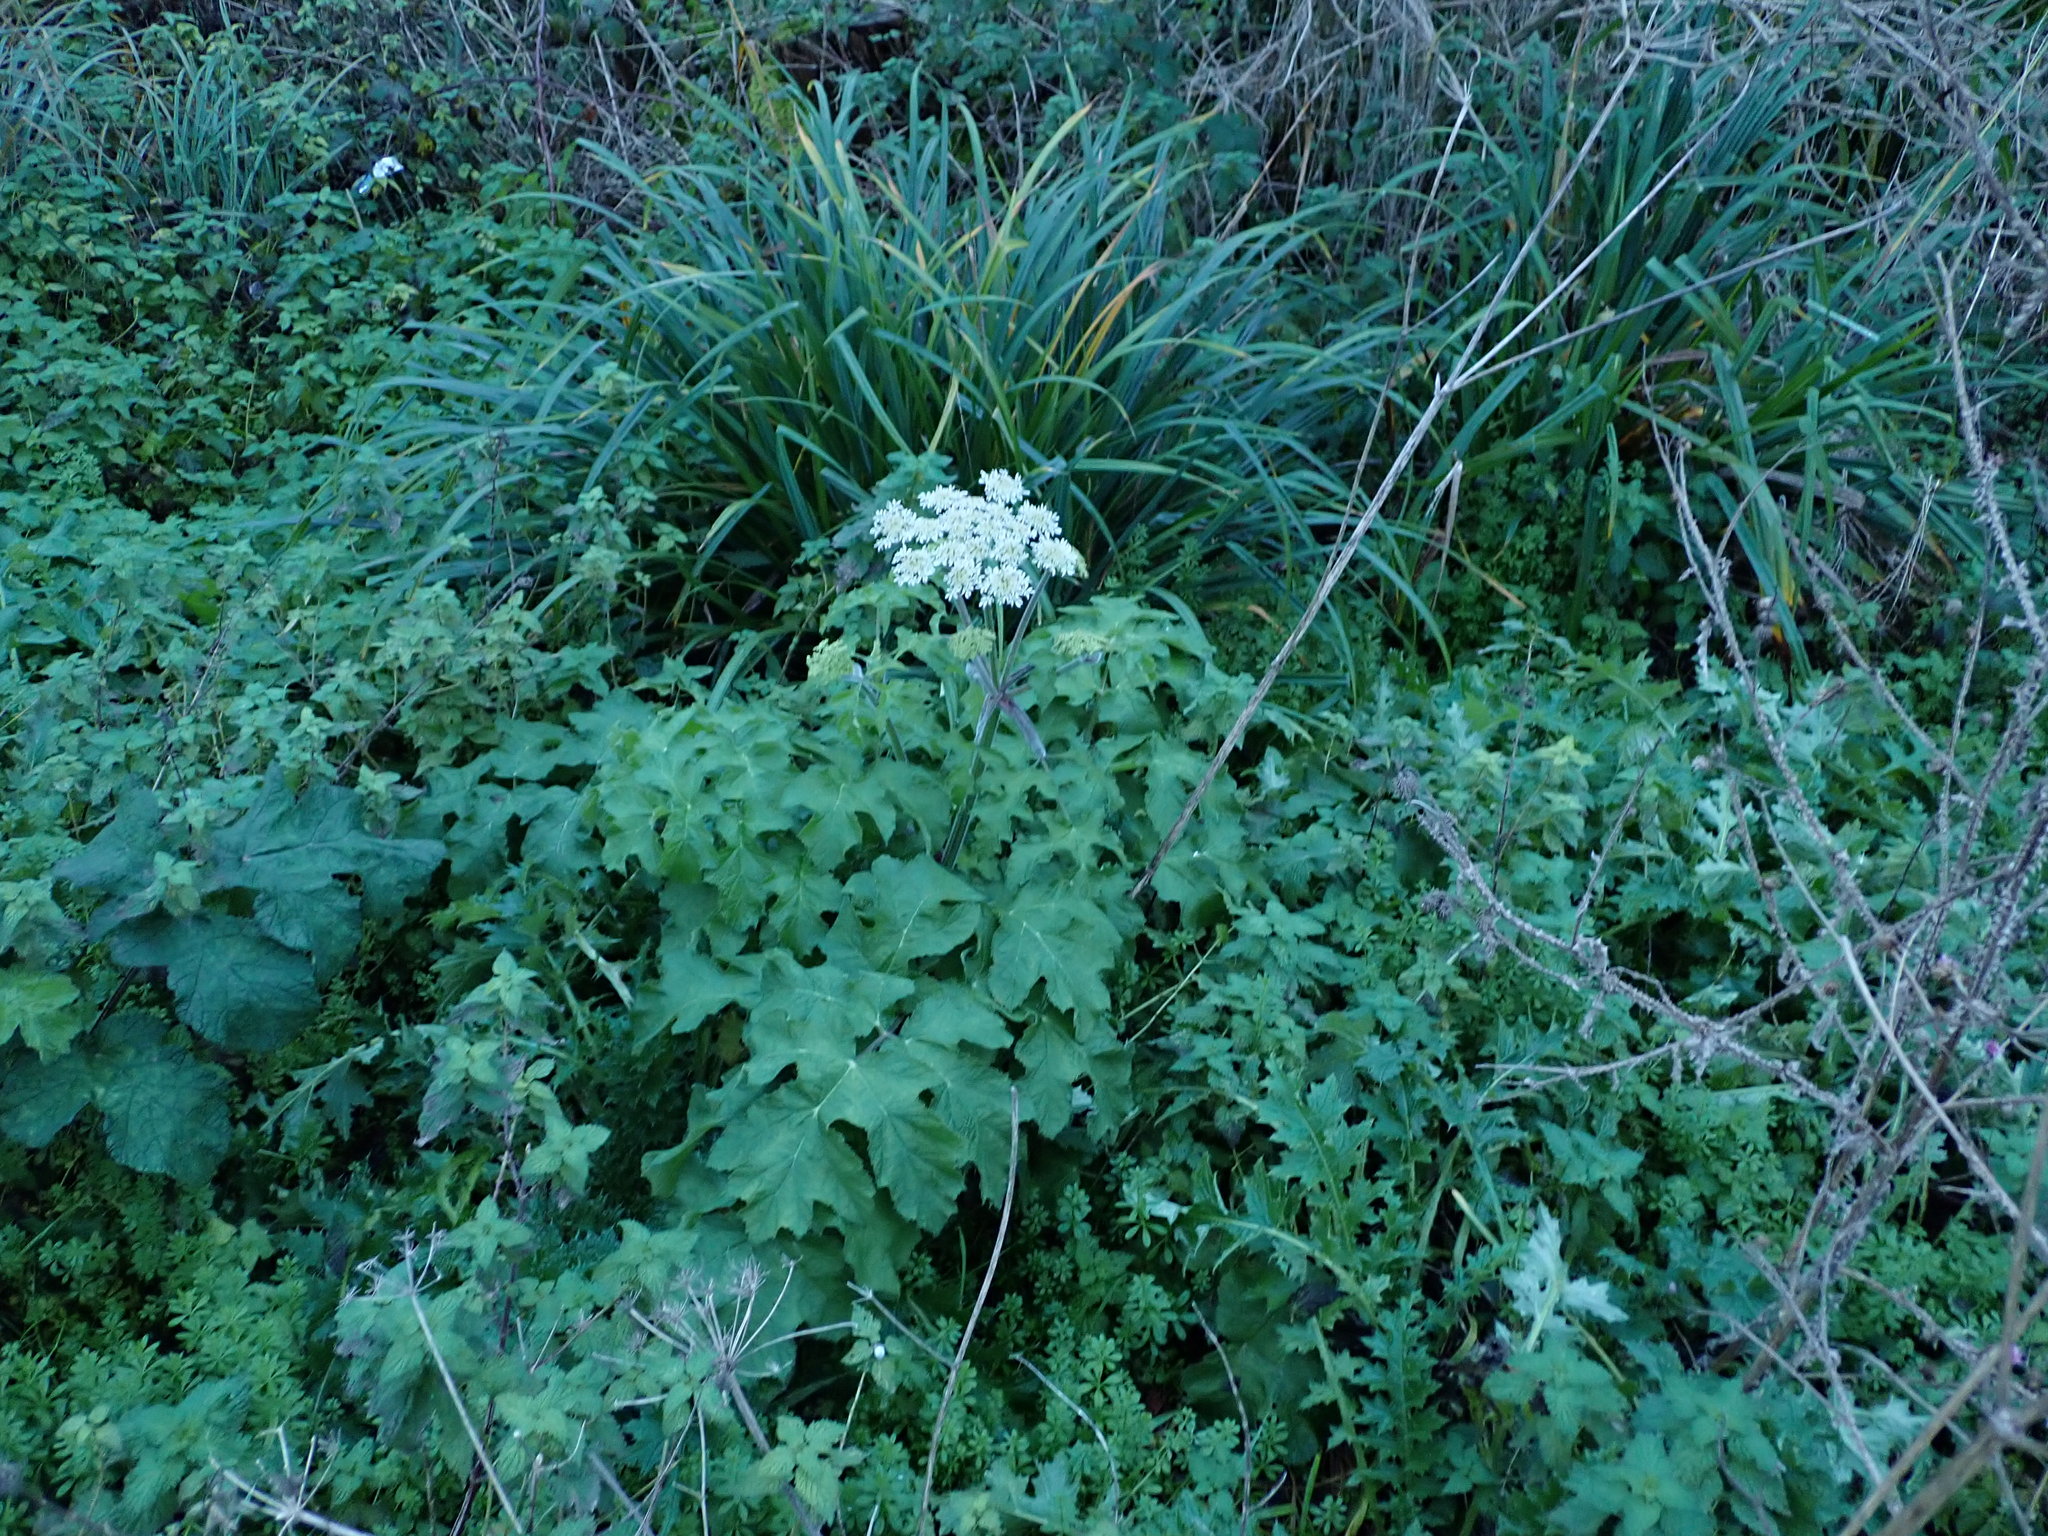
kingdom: Plantae
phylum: Tracheophyta
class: Magnoliopsida
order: Apiales
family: Apiaceae
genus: Heracleum
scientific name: Heracleum sphondylium
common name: Hogweed
